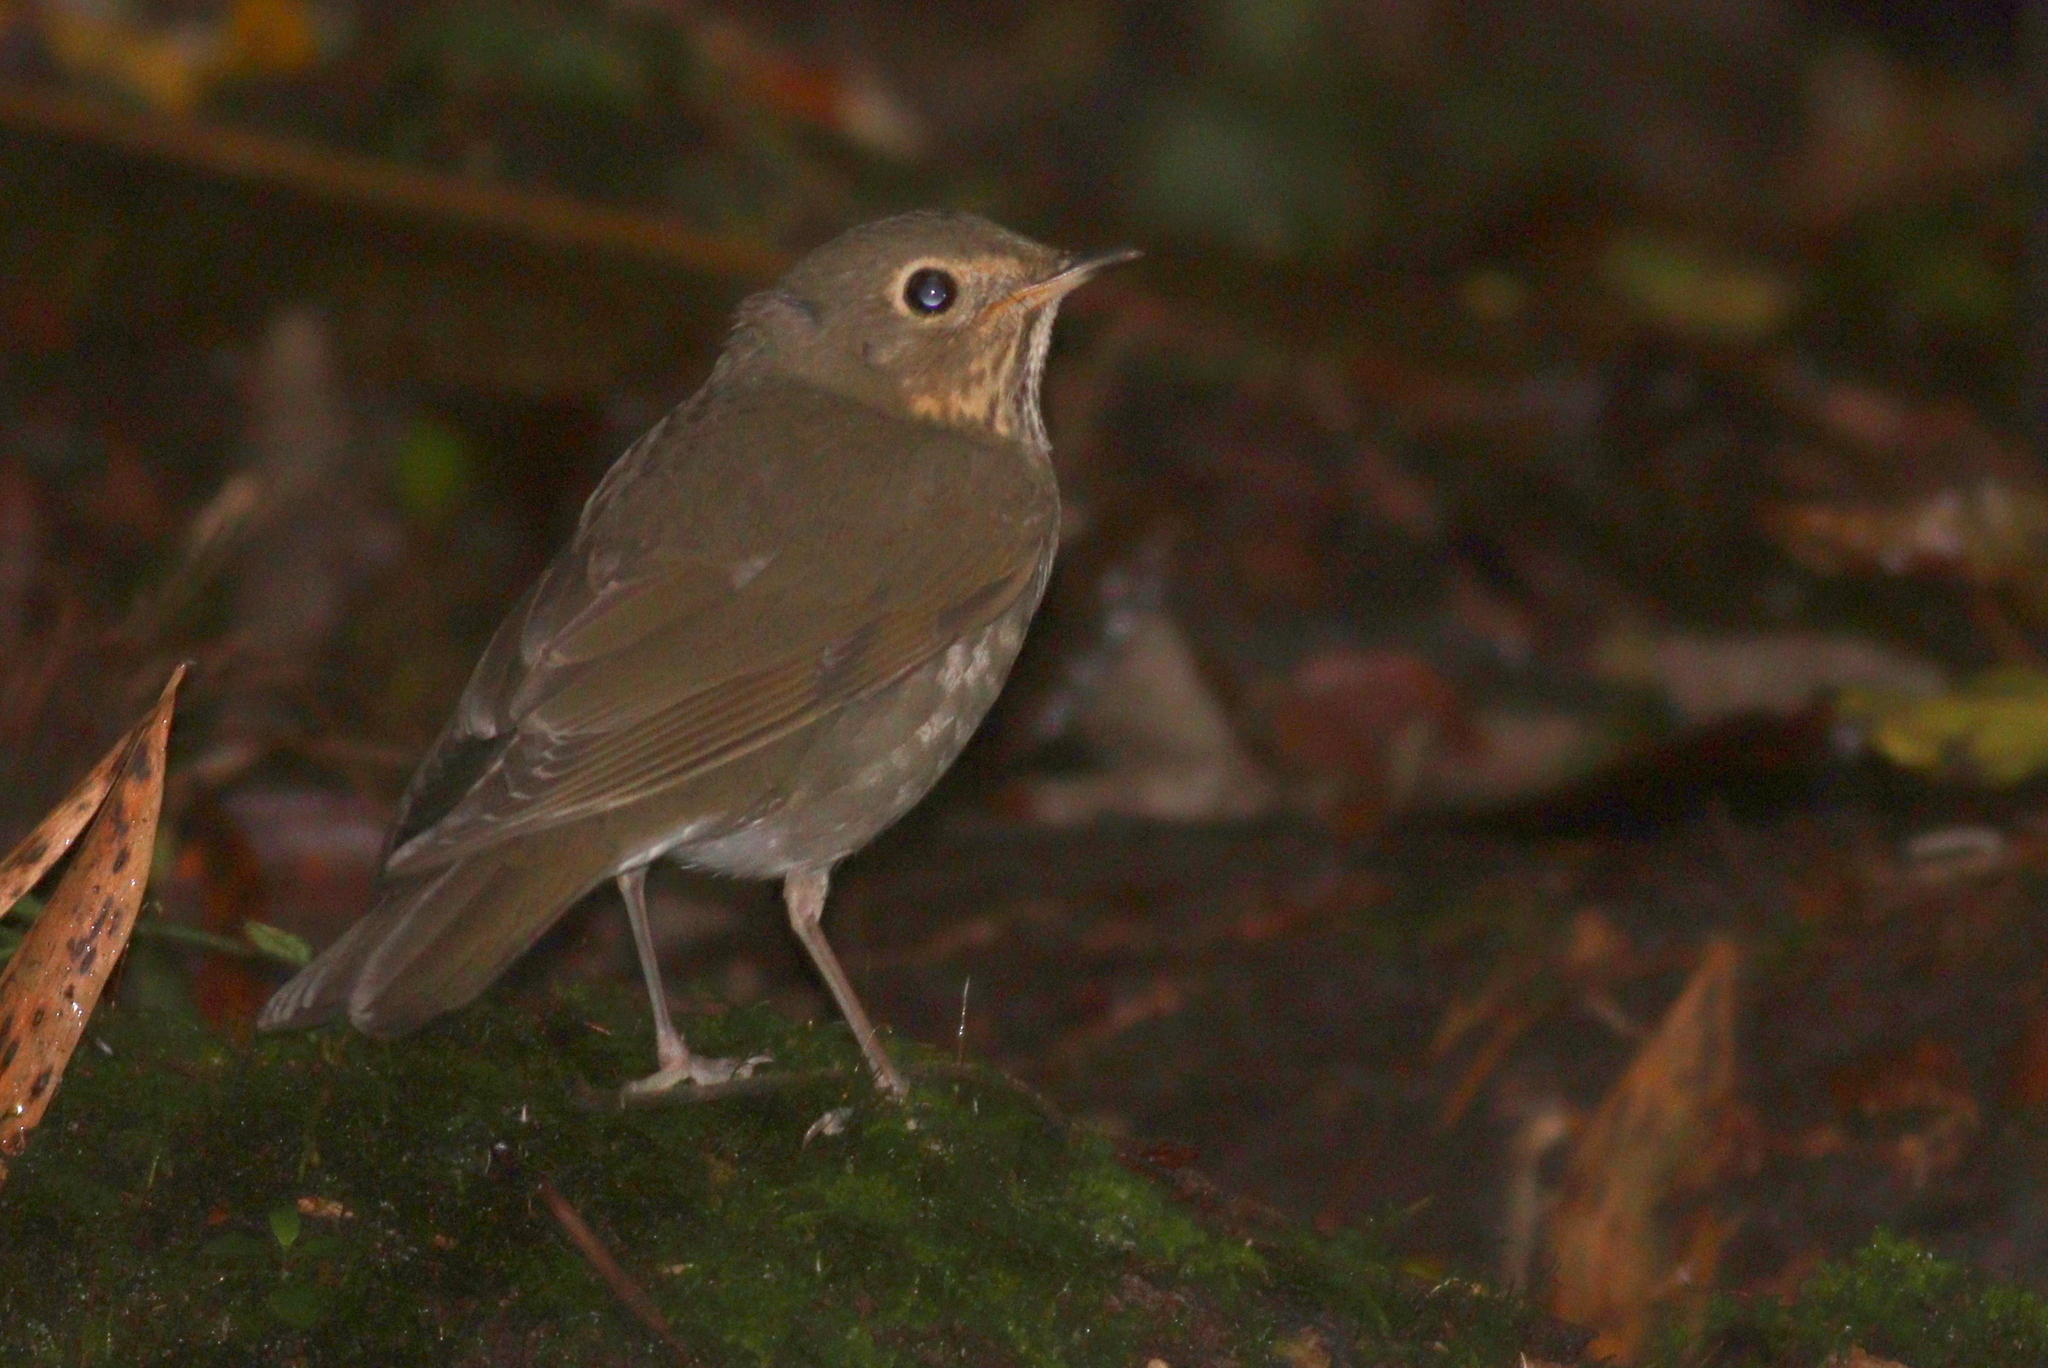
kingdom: Animalia
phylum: Chordata
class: Aves
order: Passeriformes
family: Turdidae
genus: Catharus
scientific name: Catharus ustulatus
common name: Swainson's thrush
